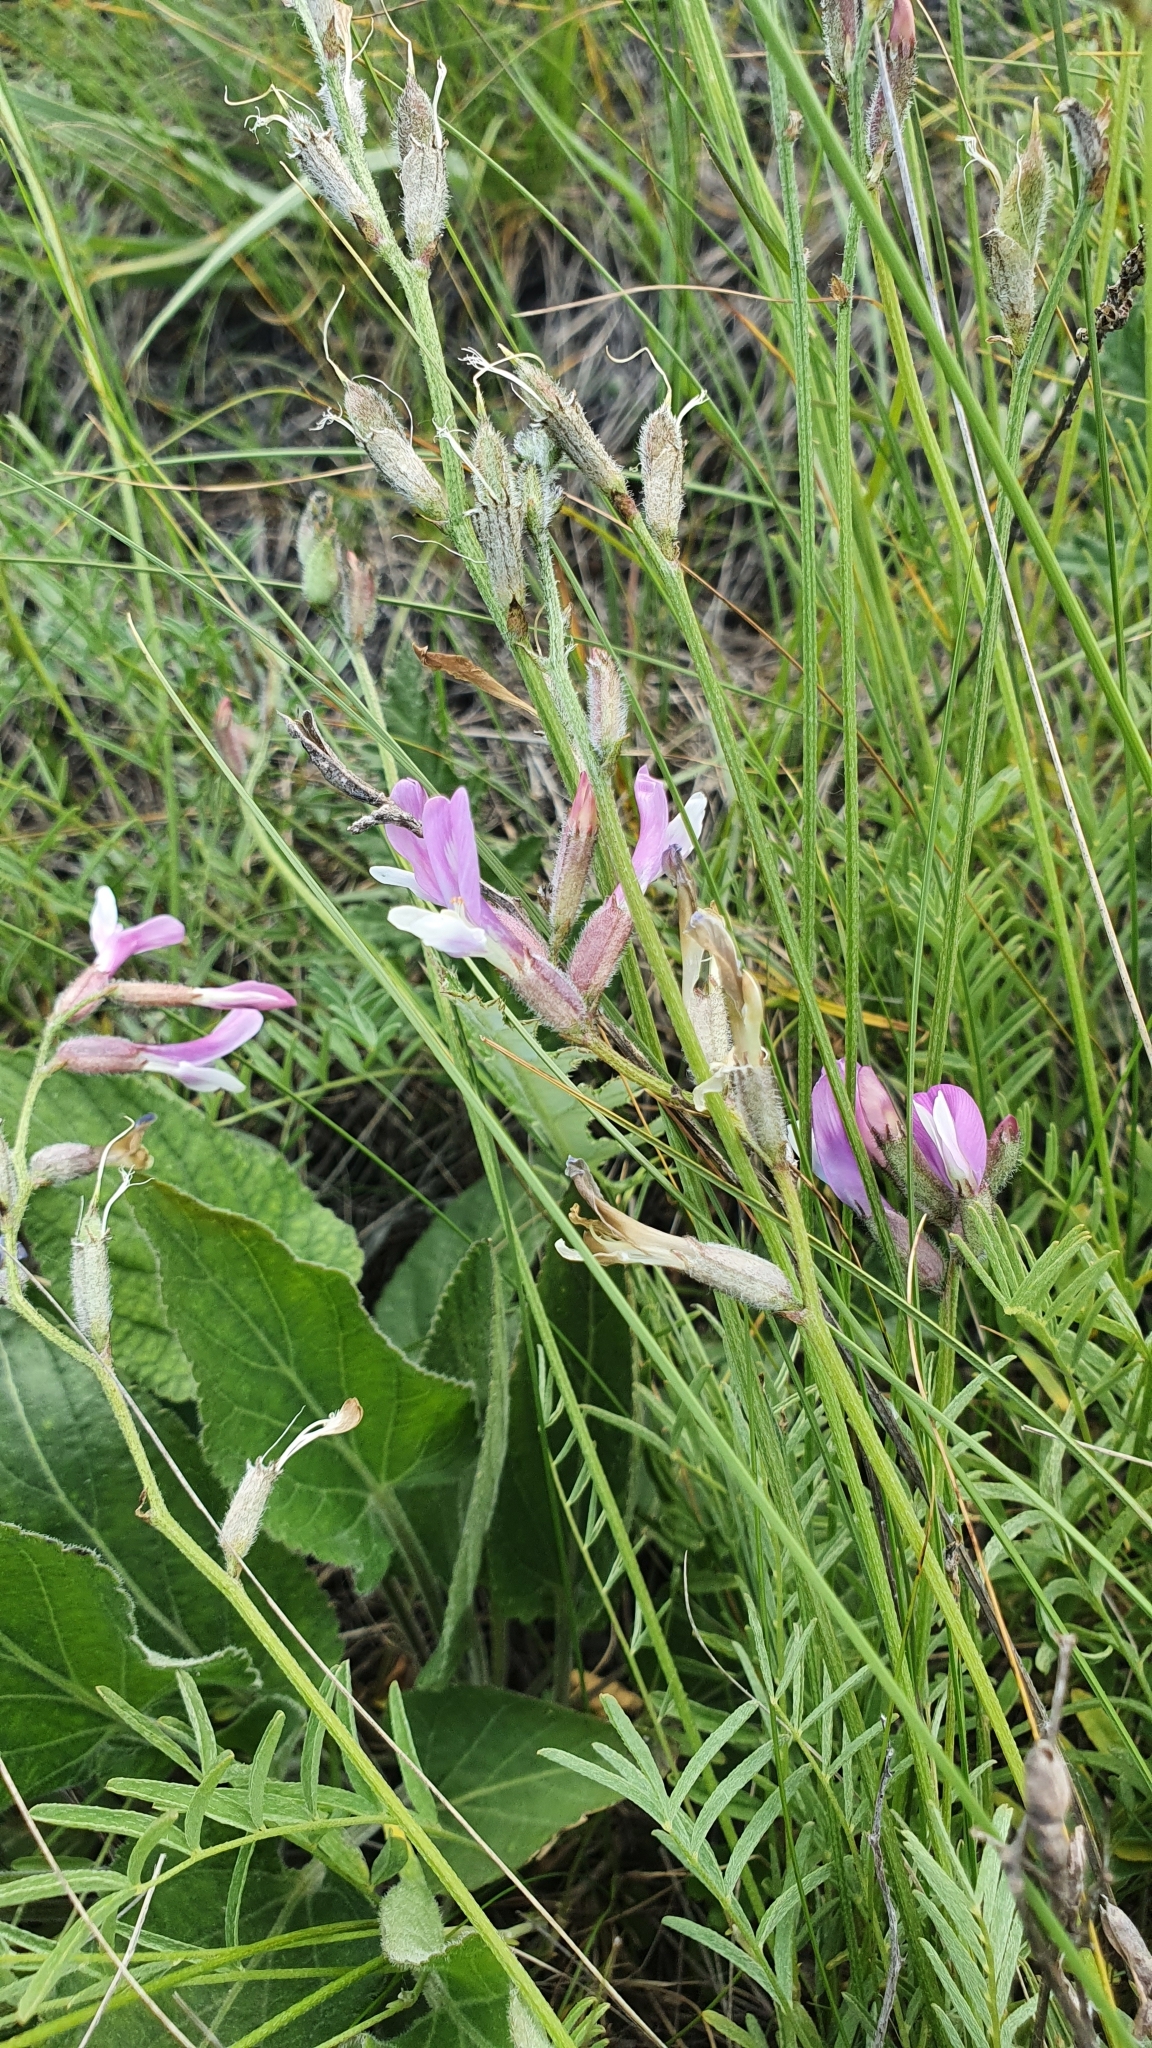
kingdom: Plantae
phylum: Tracheophyta
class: Magnoliopsida
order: Fabales
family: Fabaceae
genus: Astragalus
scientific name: Astragalus macropus
